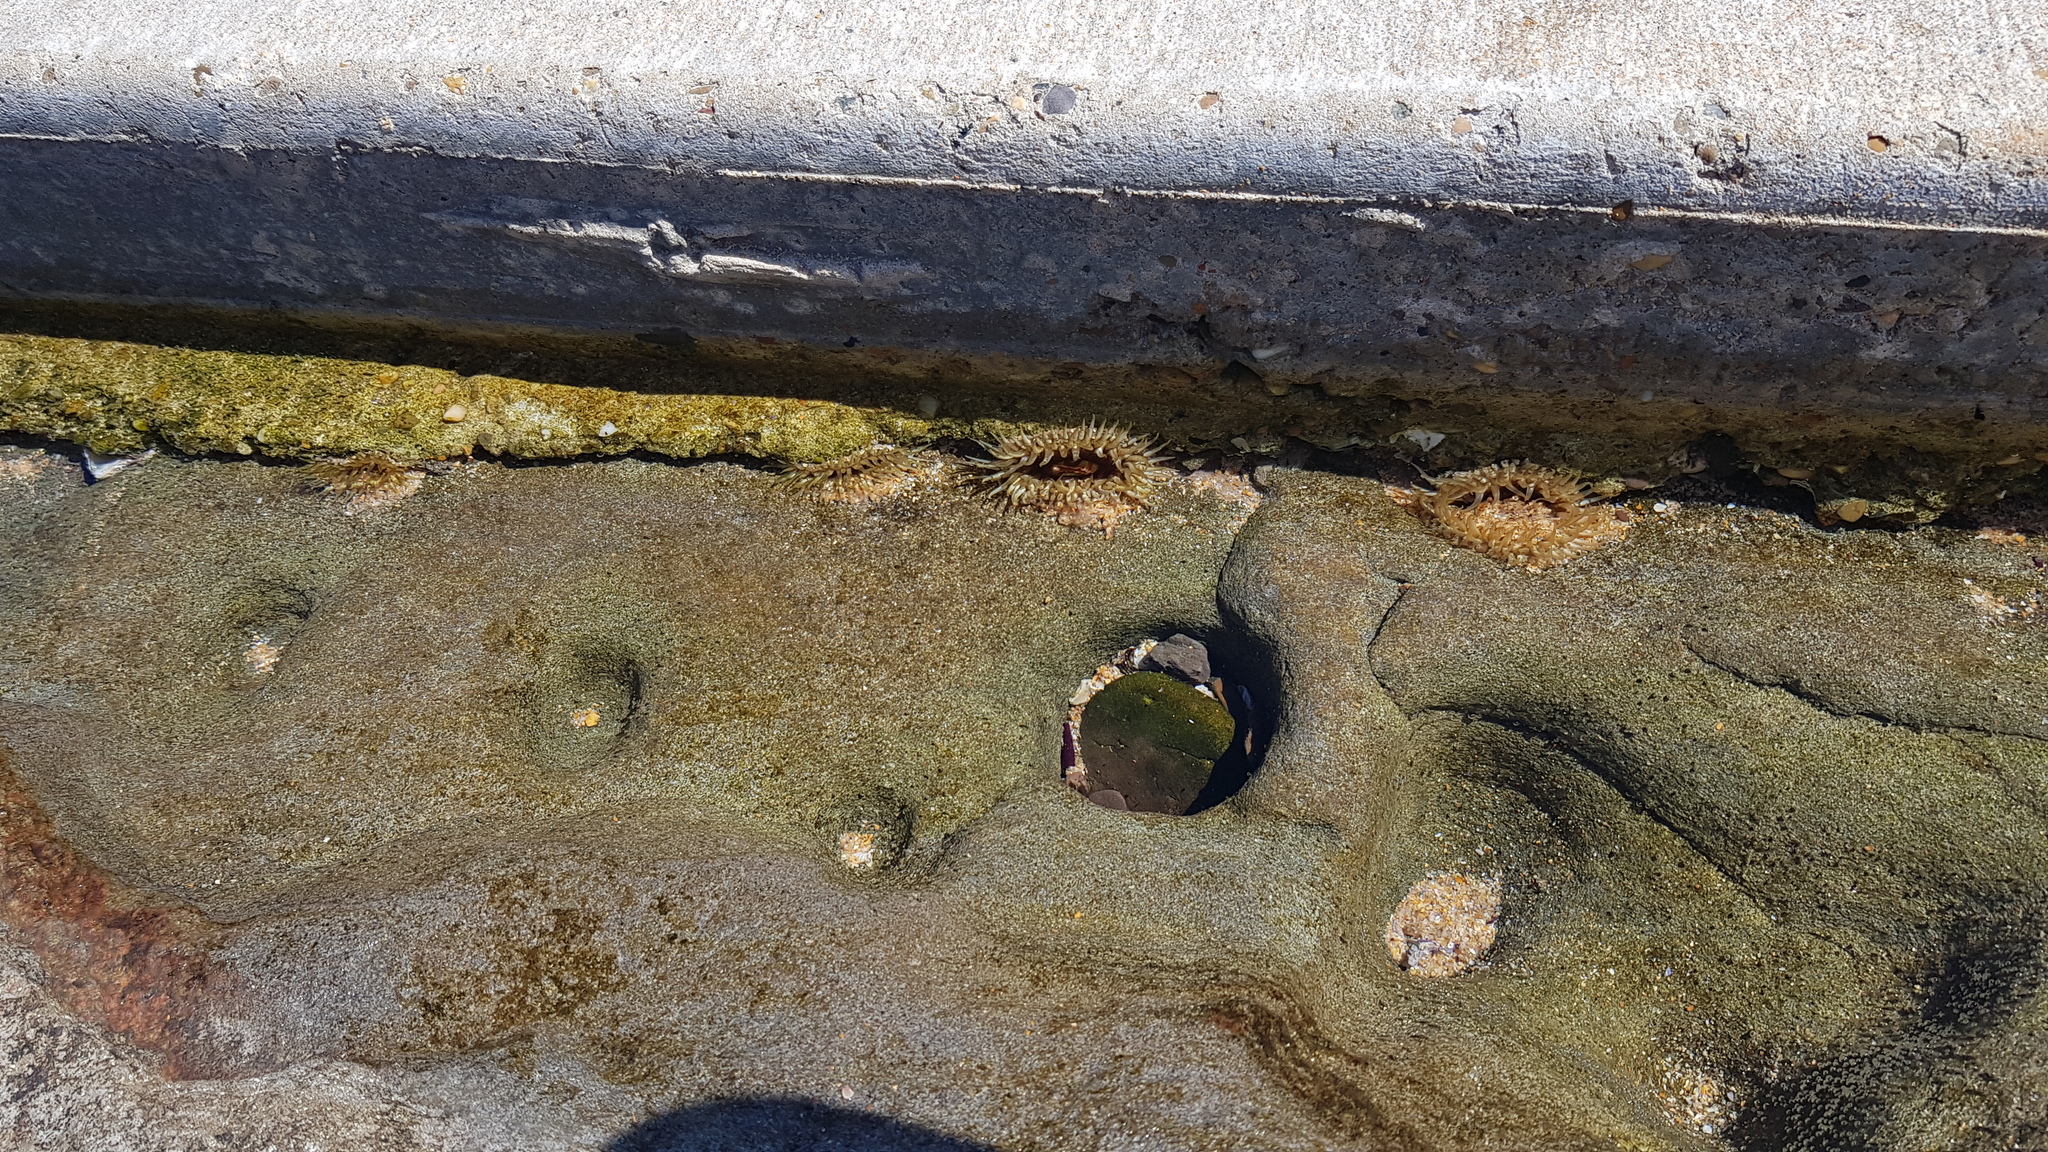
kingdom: Animalia
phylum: Cnidaria
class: Anthozoa
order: Actiniaria
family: Actiniidae
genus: Oulactis
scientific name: Oulactis muscosa
